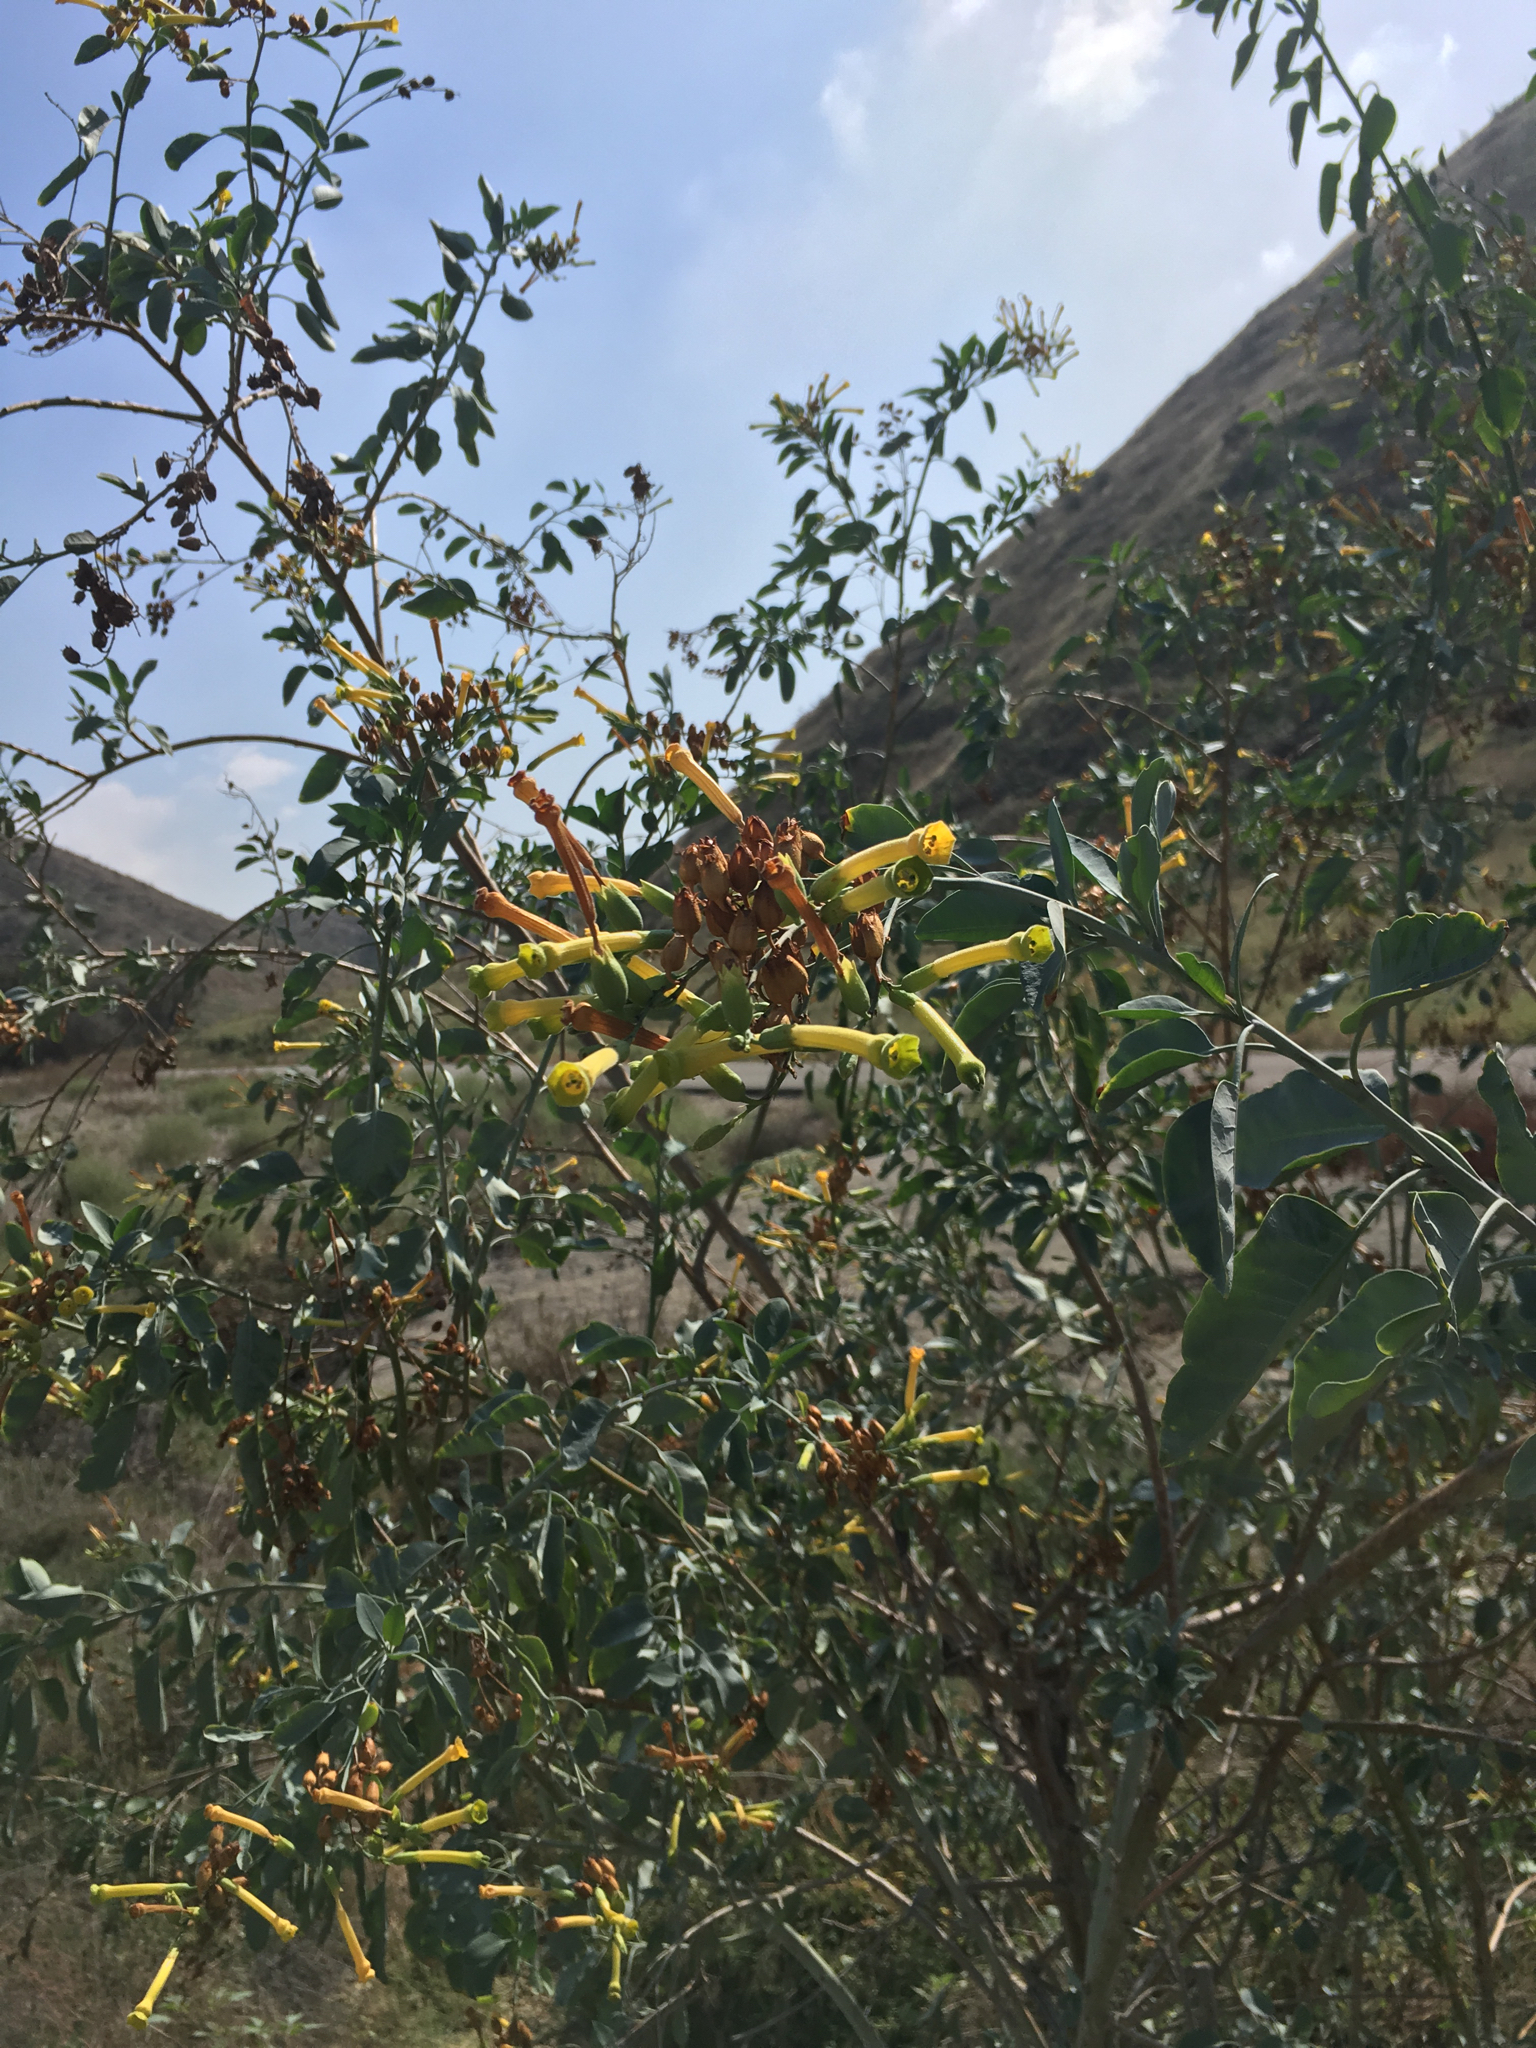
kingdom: Plantae
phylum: Tracheophyta
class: Magnoliopsida
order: Solanales
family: Solanaceae
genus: Nicotiana
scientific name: Nicotiana glauca
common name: Tree tobacco
